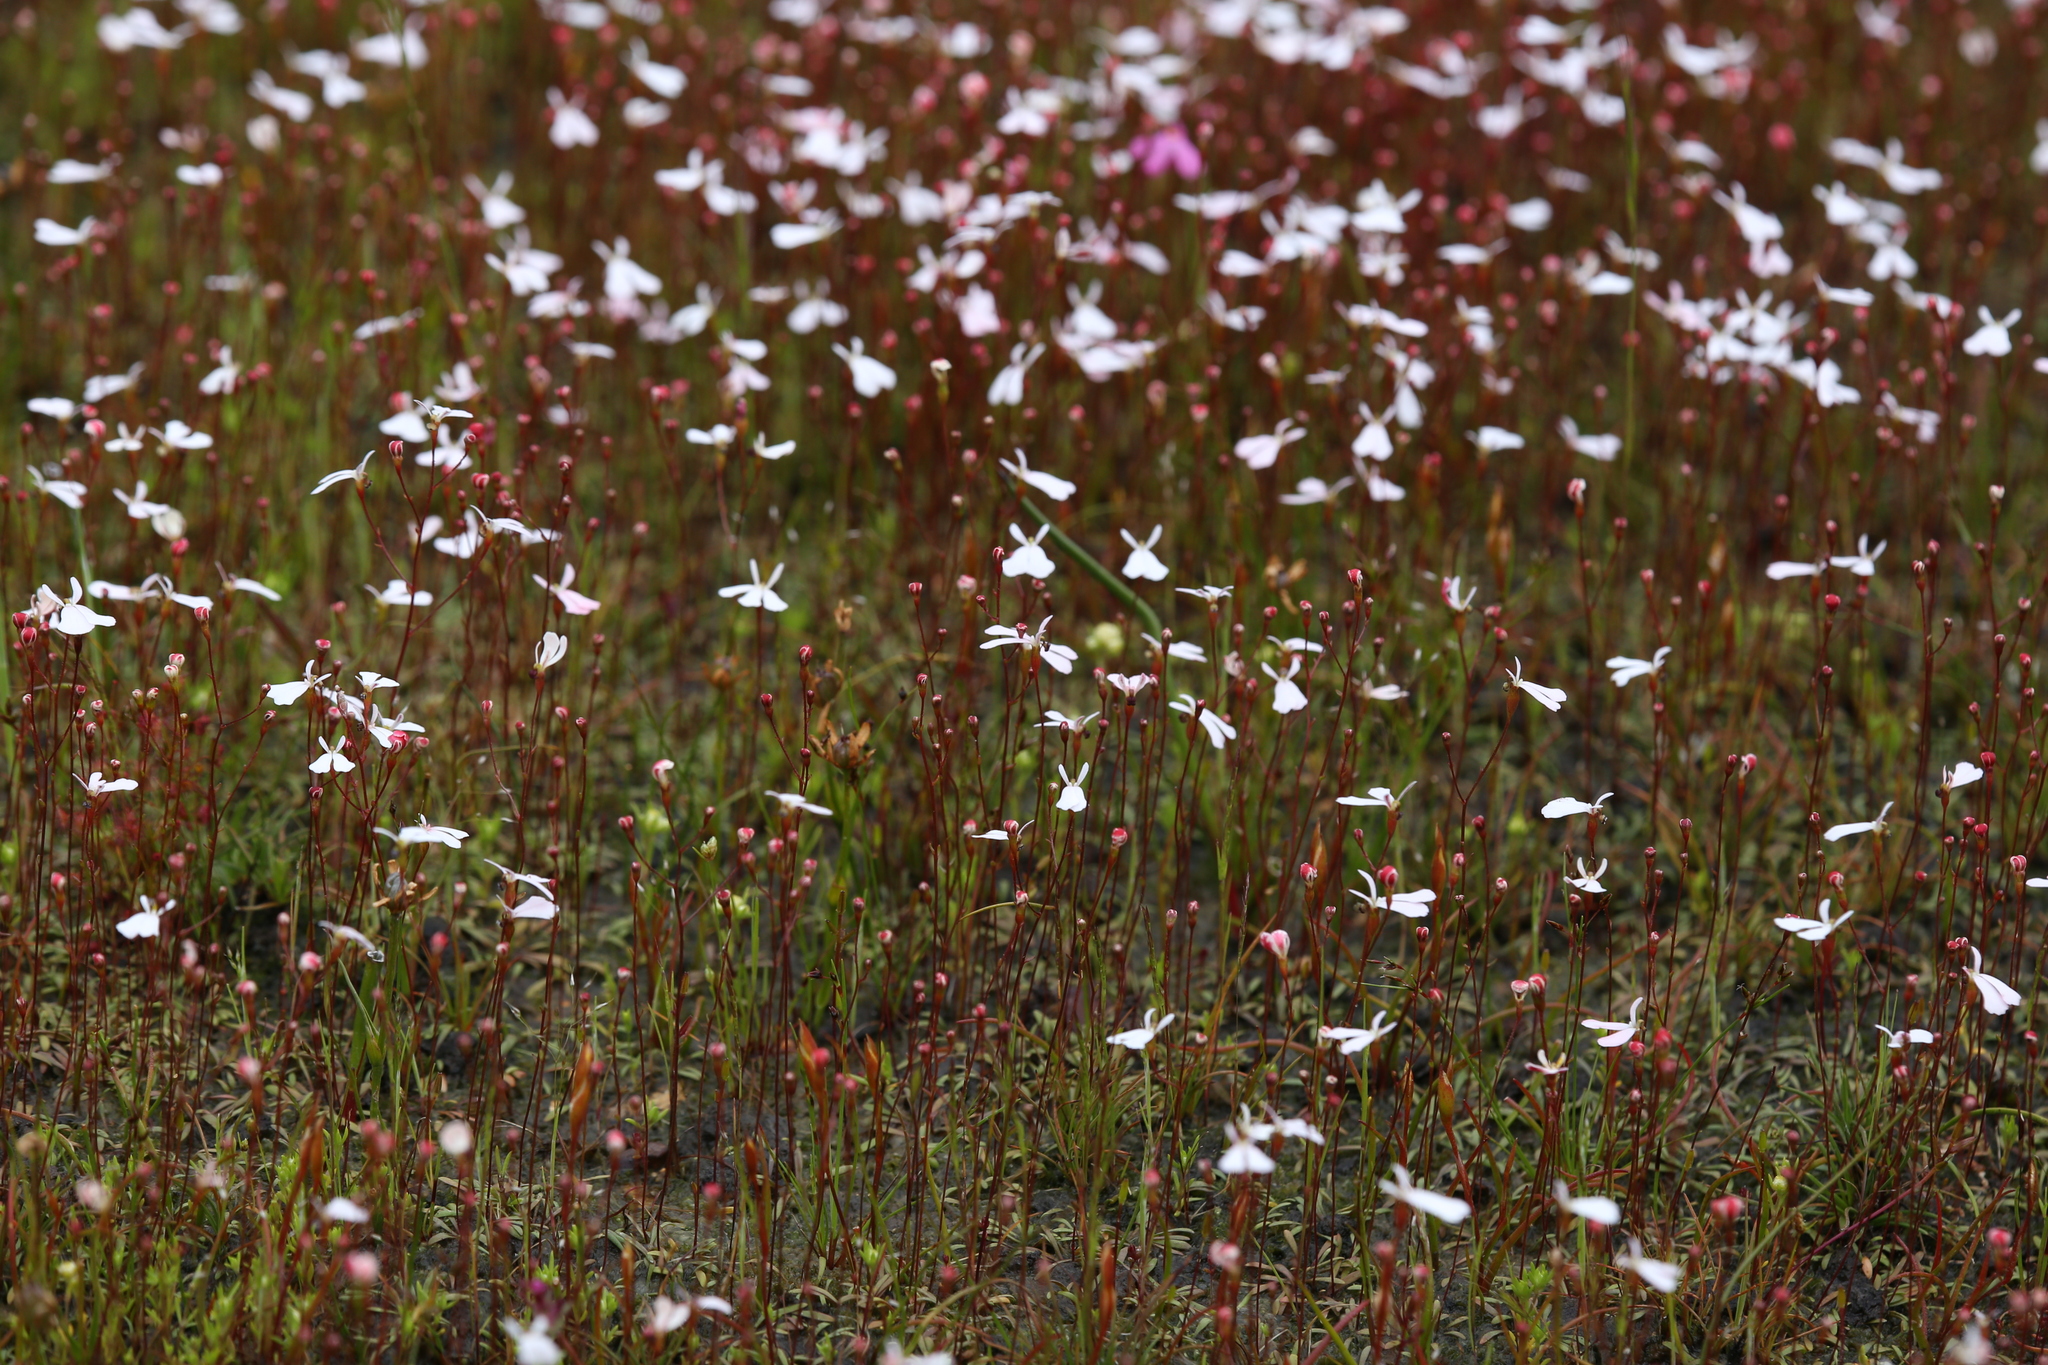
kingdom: Plantae
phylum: Tracheophyta
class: Magnoliopsida
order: Asterales
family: Stylidiaceae
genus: Stylidium
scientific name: Stylidium obtusatum
